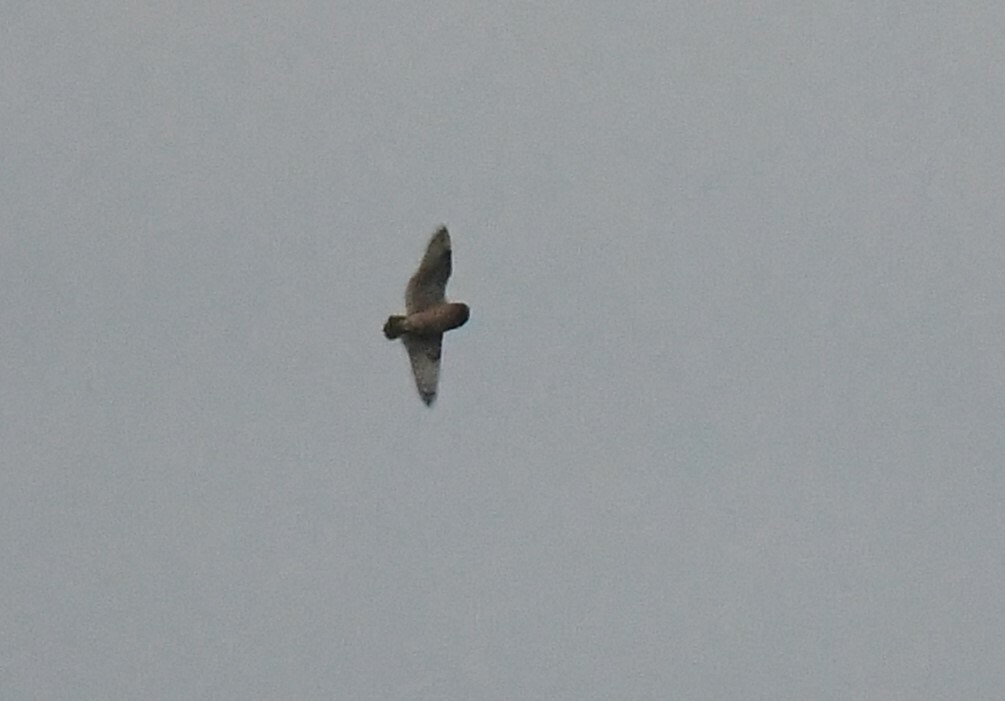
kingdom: Animalia
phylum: Chordata
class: Aves
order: Strigiformes
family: Strigidae
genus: Asio
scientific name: Asio flammeus
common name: Short-eared owl
